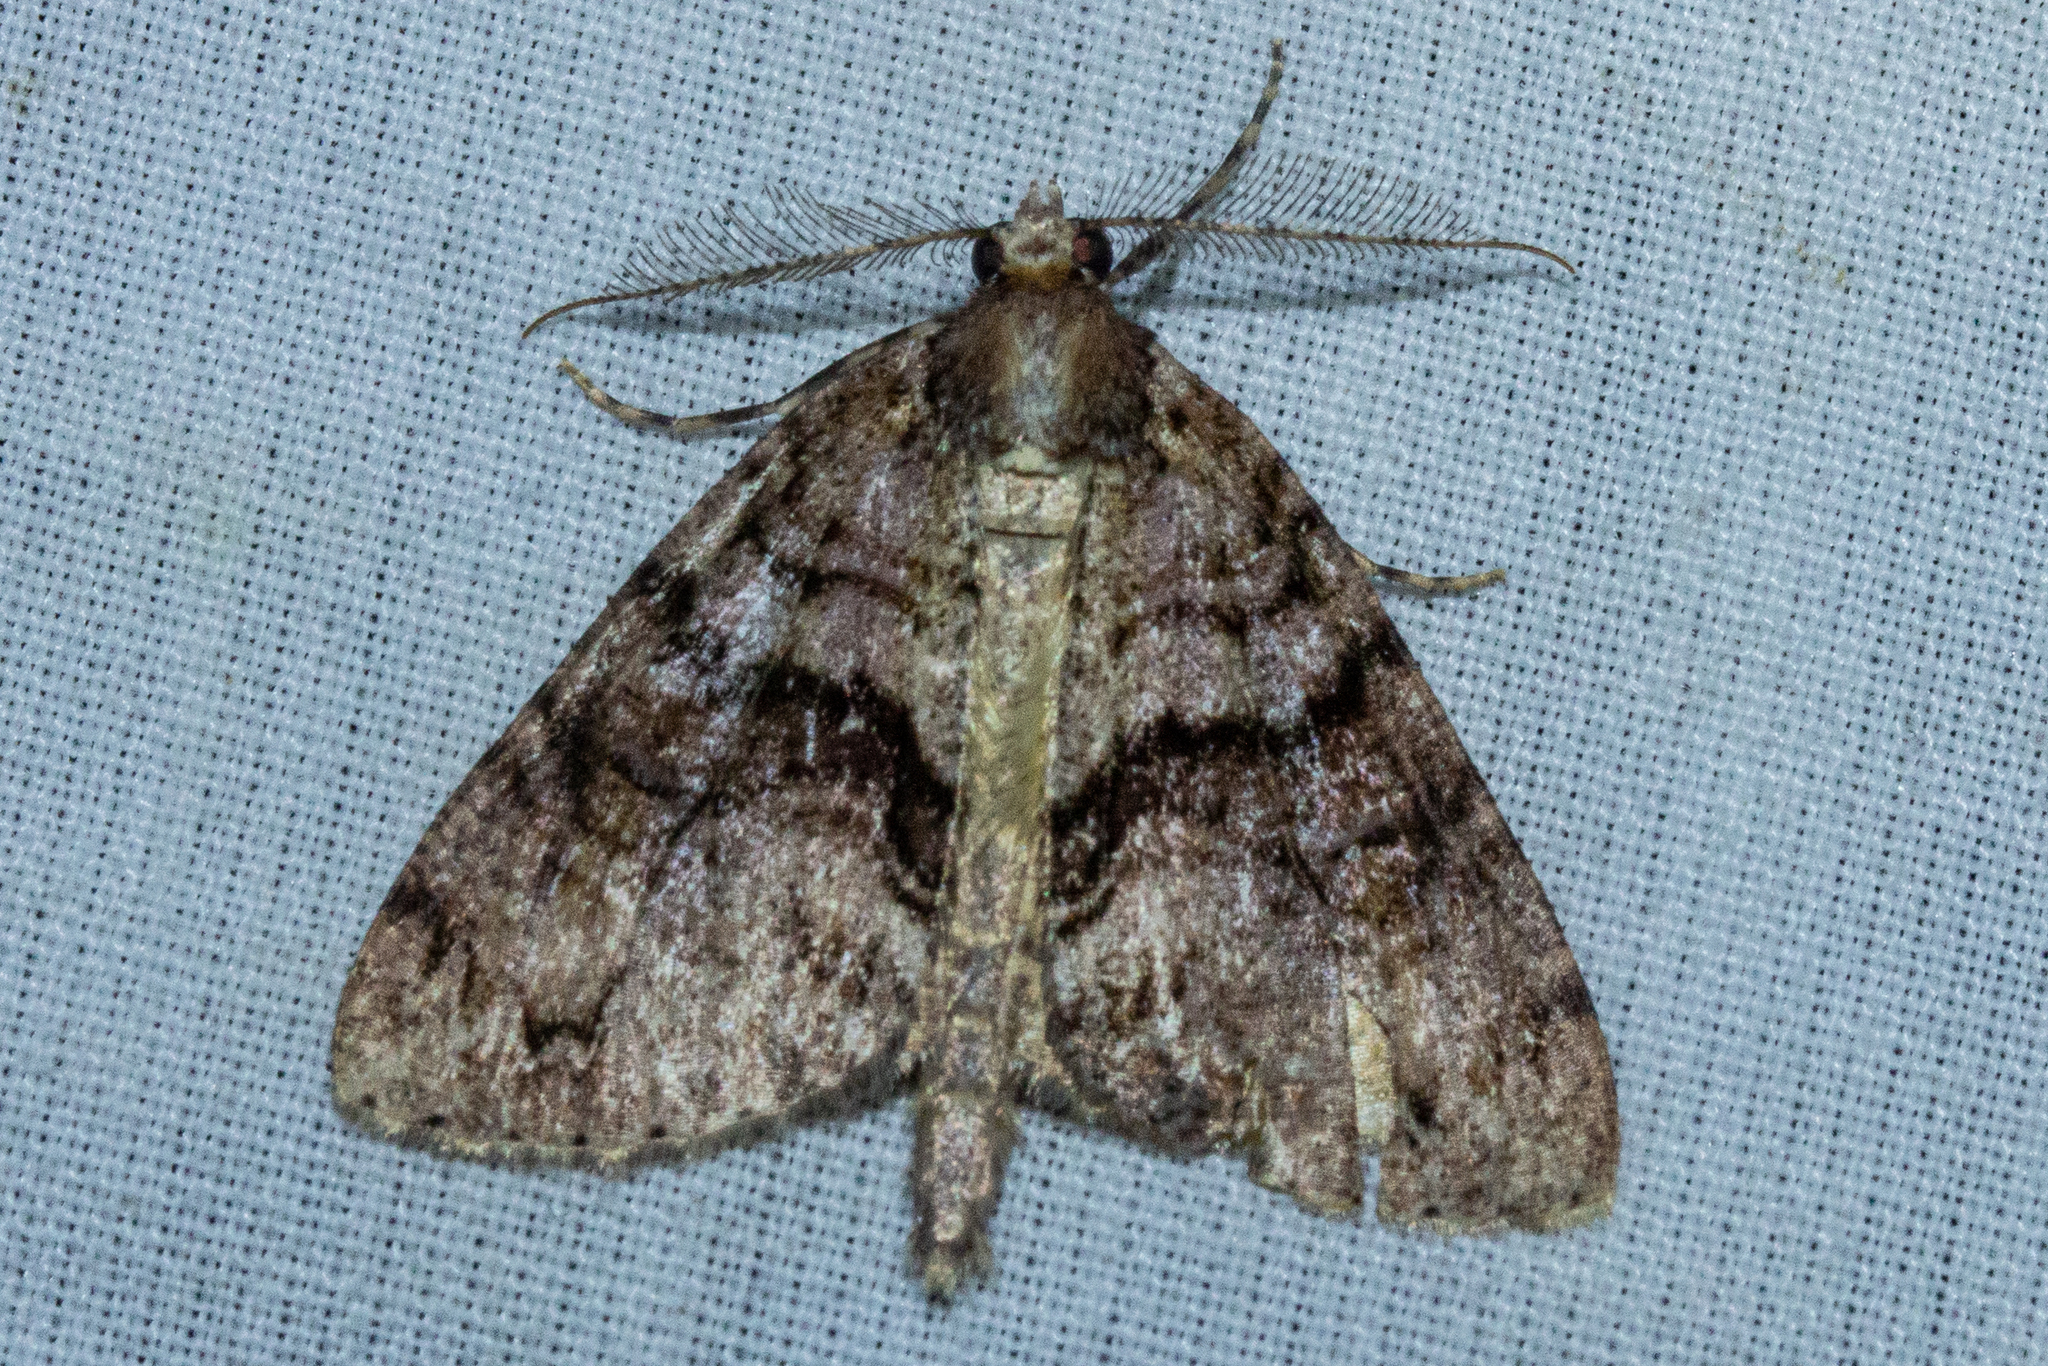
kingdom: Animalia
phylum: Arthropoda
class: Insecta
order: Lepidoptera
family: Geometridae
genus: Pseudocoremia
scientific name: Pseudocoremia suavis
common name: Common forest looper
